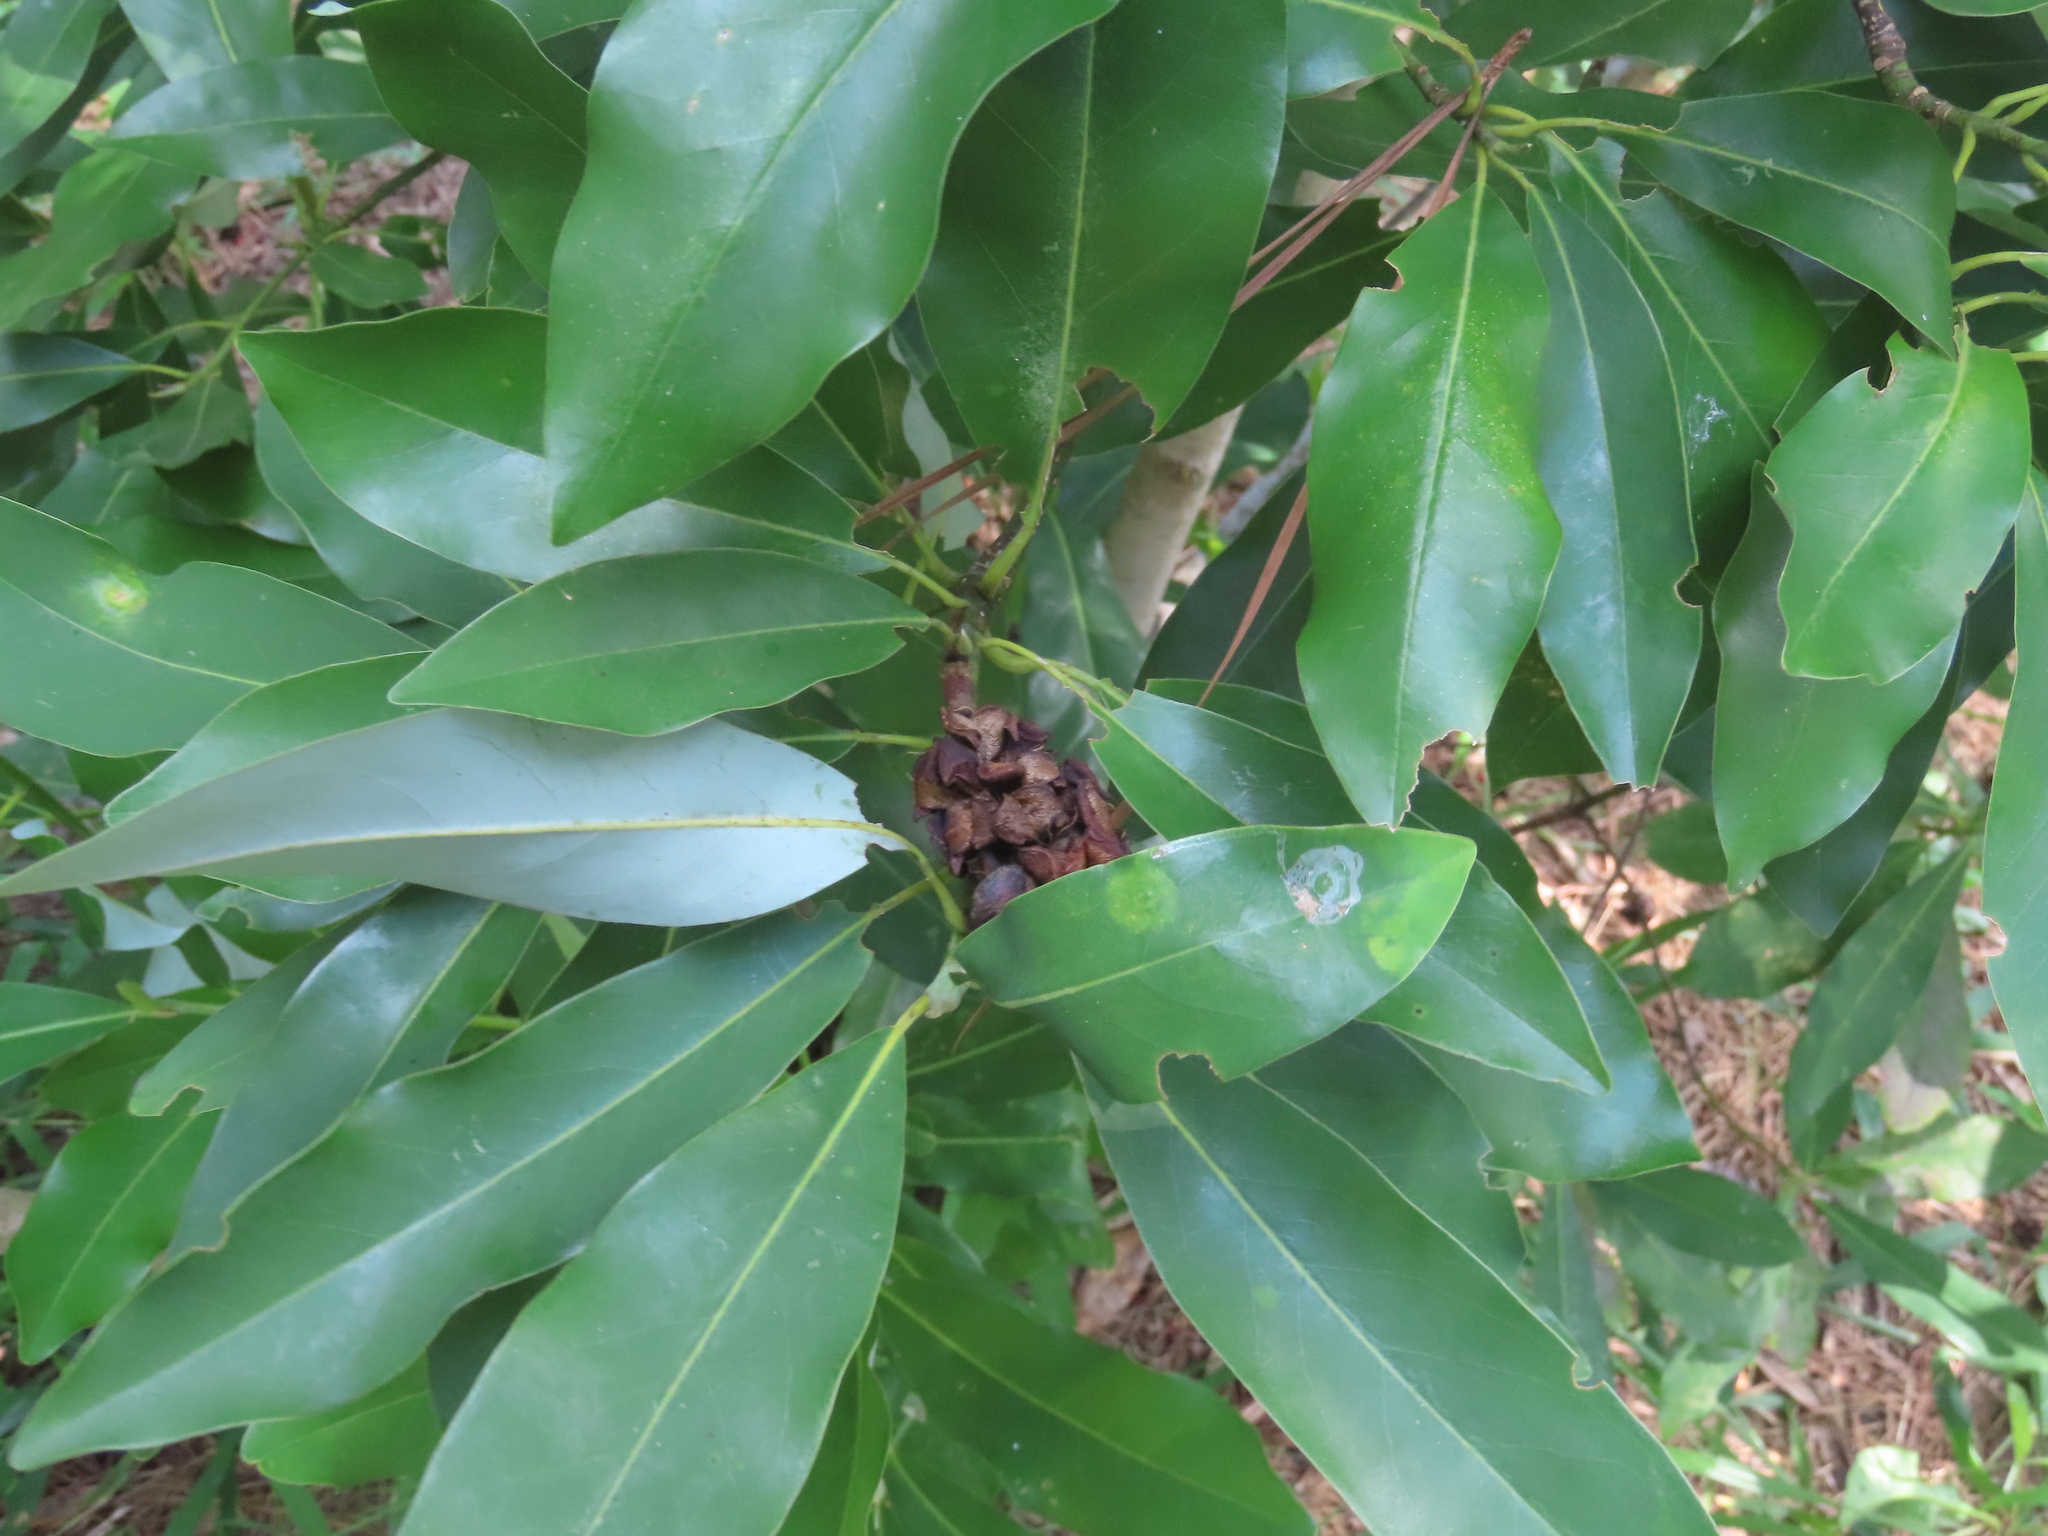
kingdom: Plantae
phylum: Tracheophyta
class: Magnoliopsida
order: Magnoliales
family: Magnoliaceae
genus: Magnolia
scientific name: Magnolia virginiana
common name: Swamp bay
